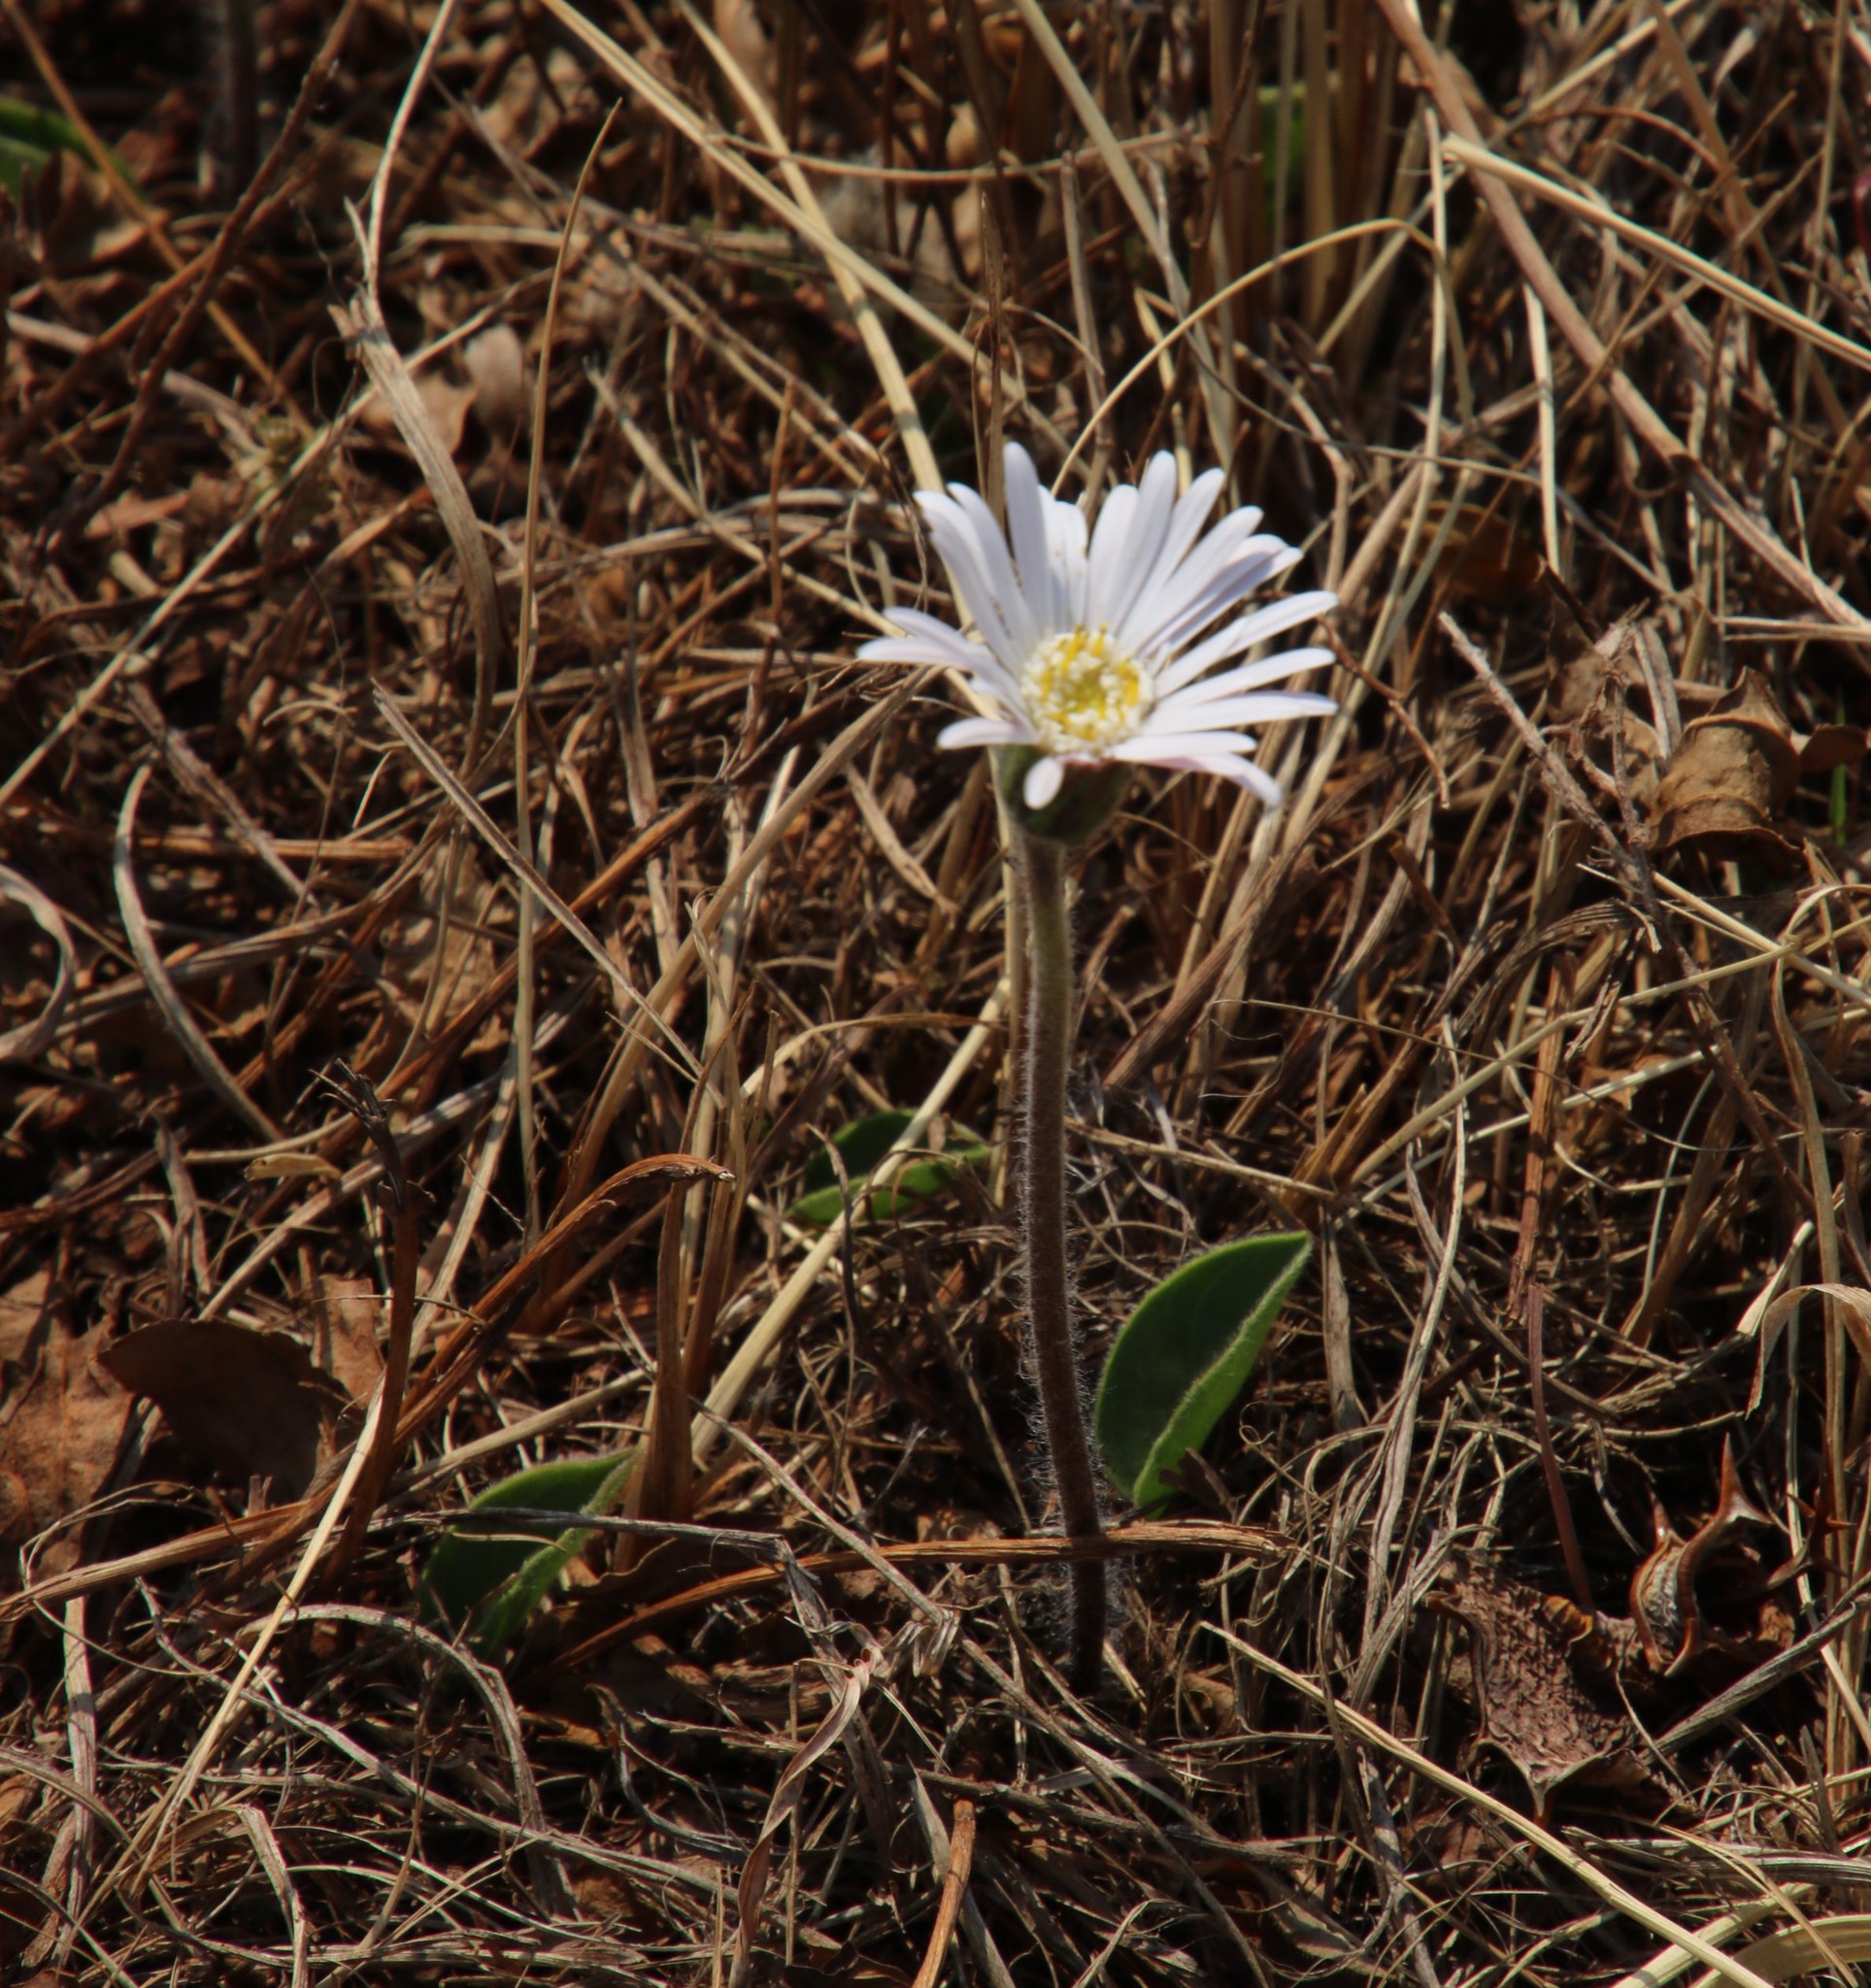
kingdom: Plantae
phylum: Tracheophyta
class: Magnoliopsida
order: Asterales
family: Asteraceae
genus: Piloselloides
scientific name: Piloselloides hirsuta
